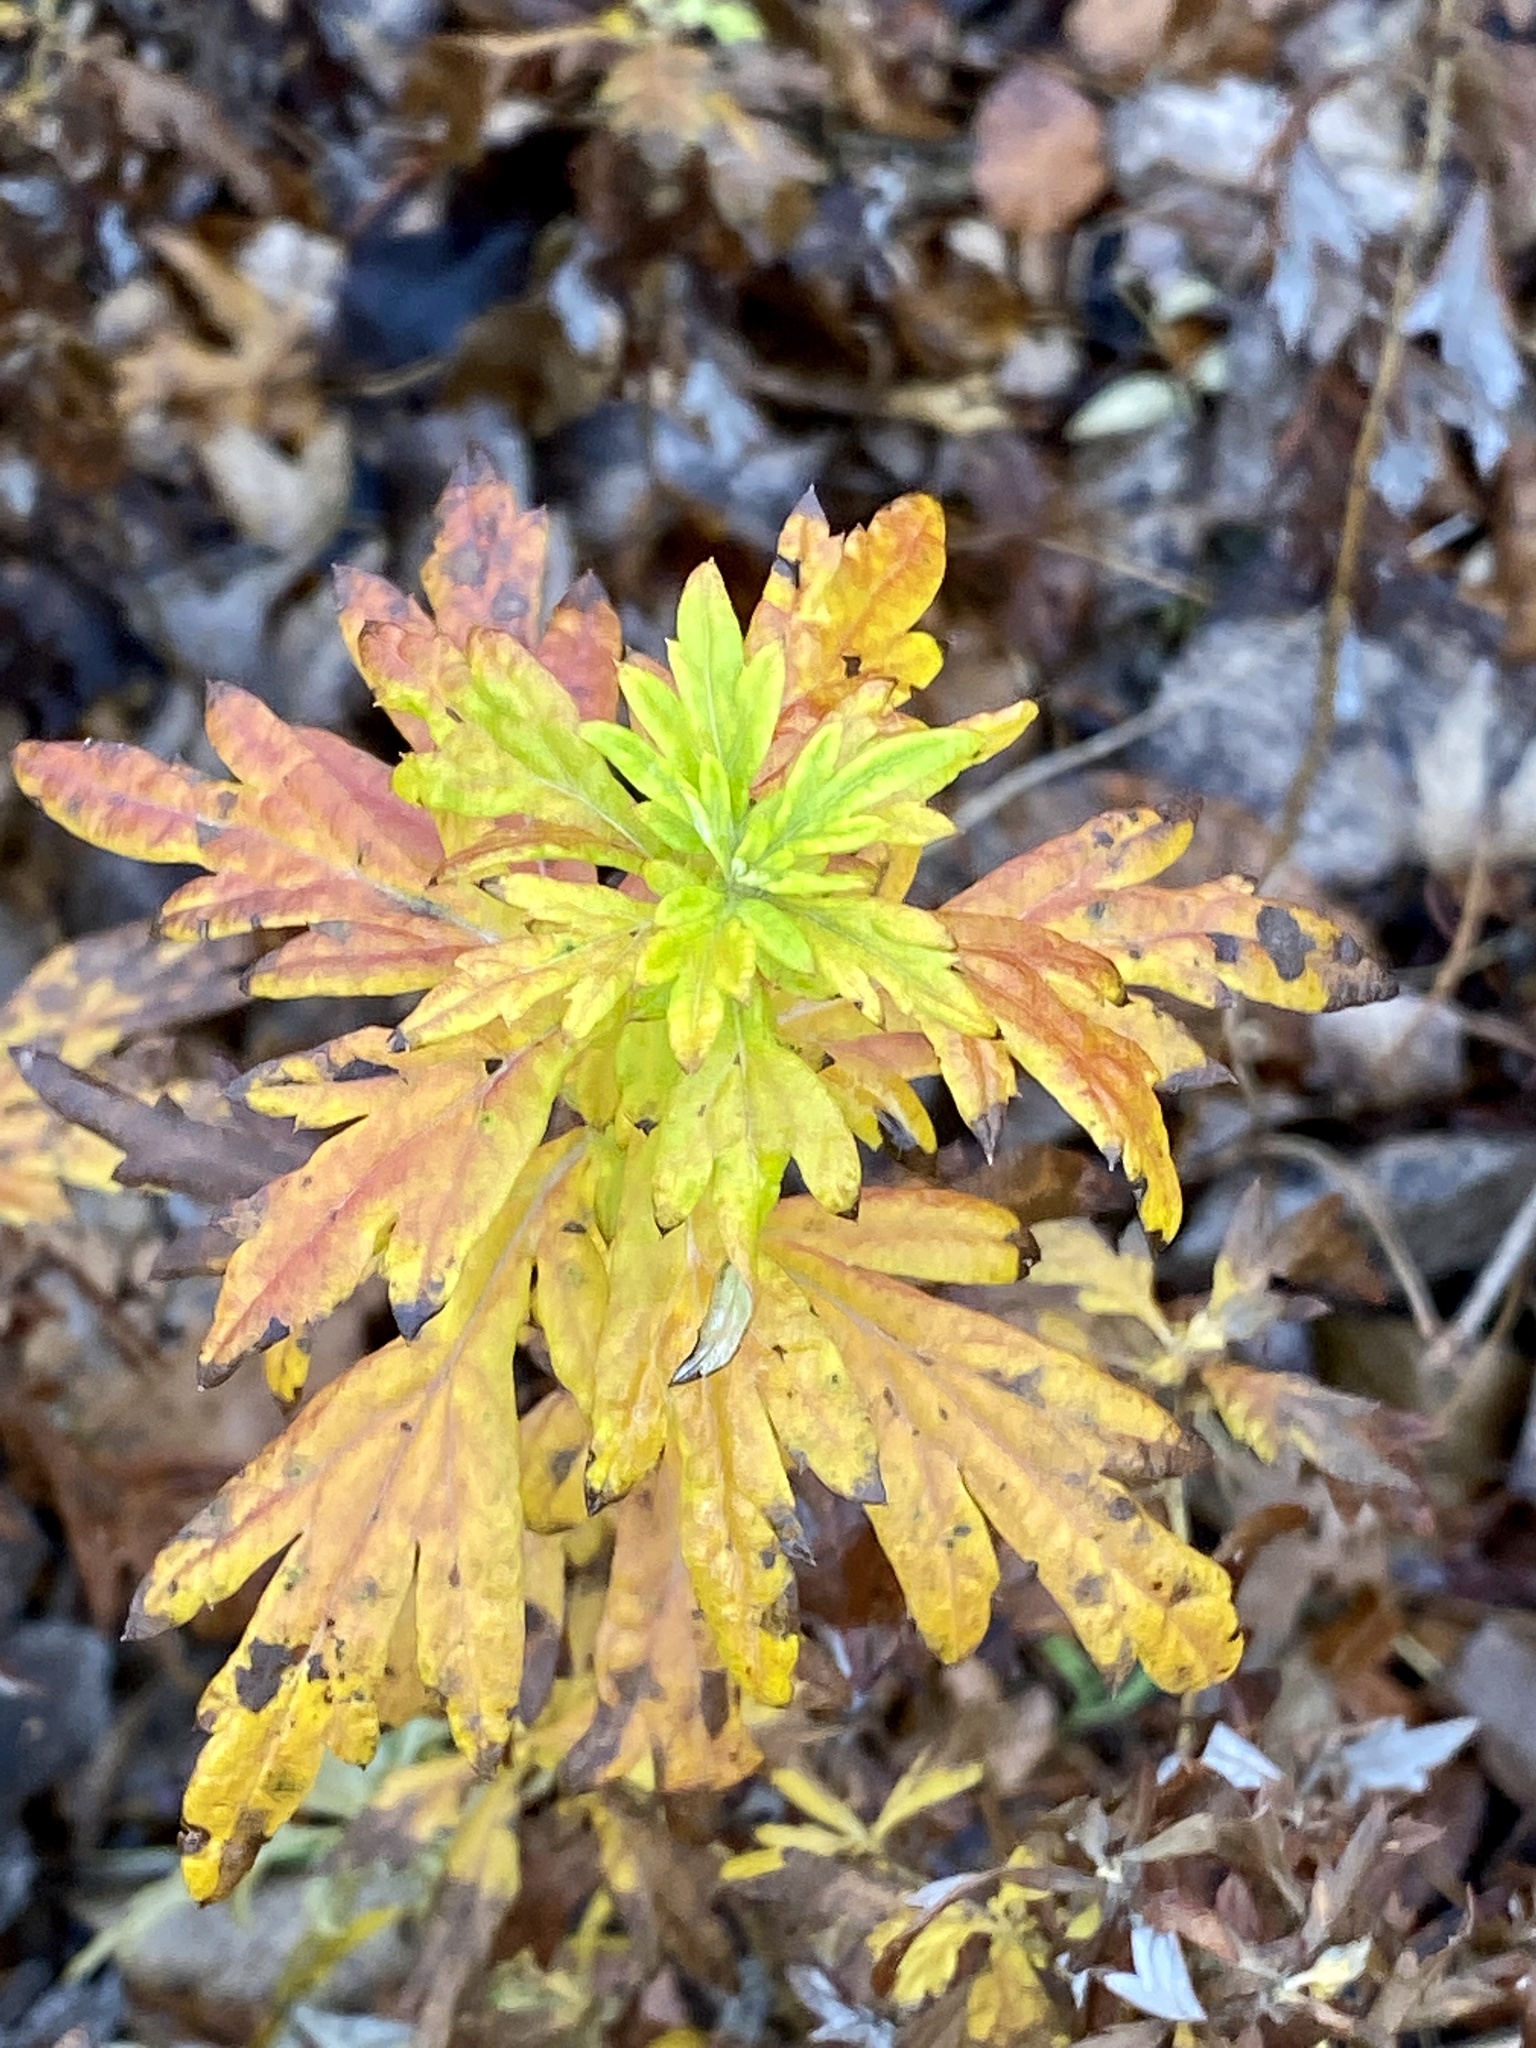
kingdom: Plantae
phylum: Tracheophyta
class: Magnoliopsida
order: Asterales
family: Asteraceae
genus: Artemisia
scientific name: Artemisia vulgaris
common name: Mugwort
